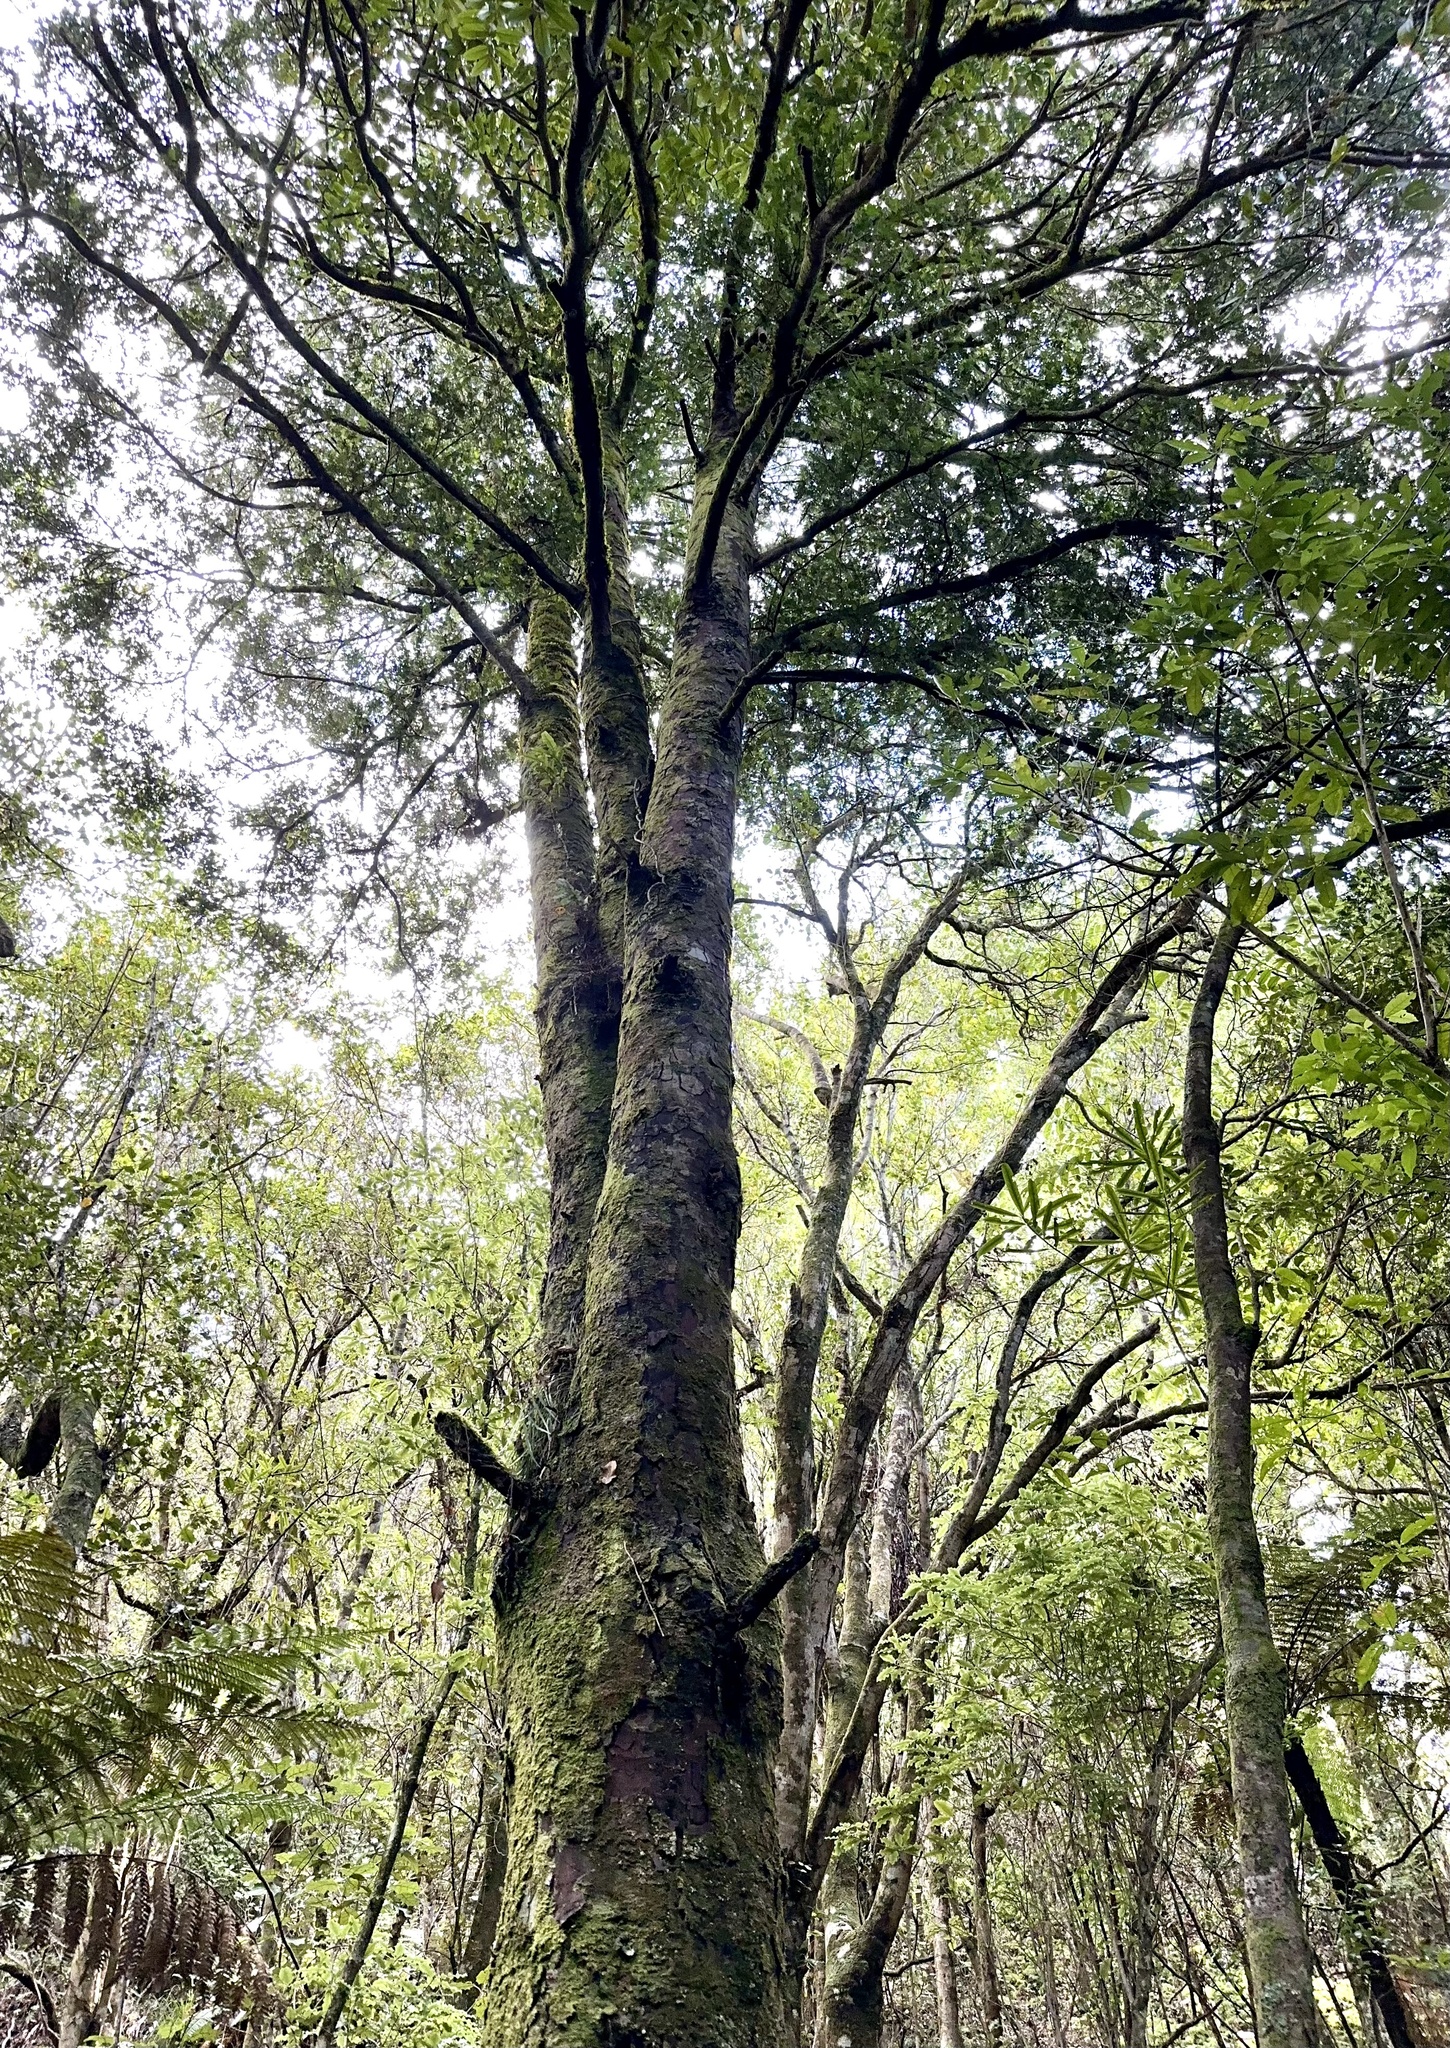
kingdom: Plantae
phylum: Tracheophyta
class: Pinopsida
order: Pinales
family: Podocarpaceae
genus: Prumnopitys
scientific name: Prumnopitys ferruginea
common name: Brown pine
